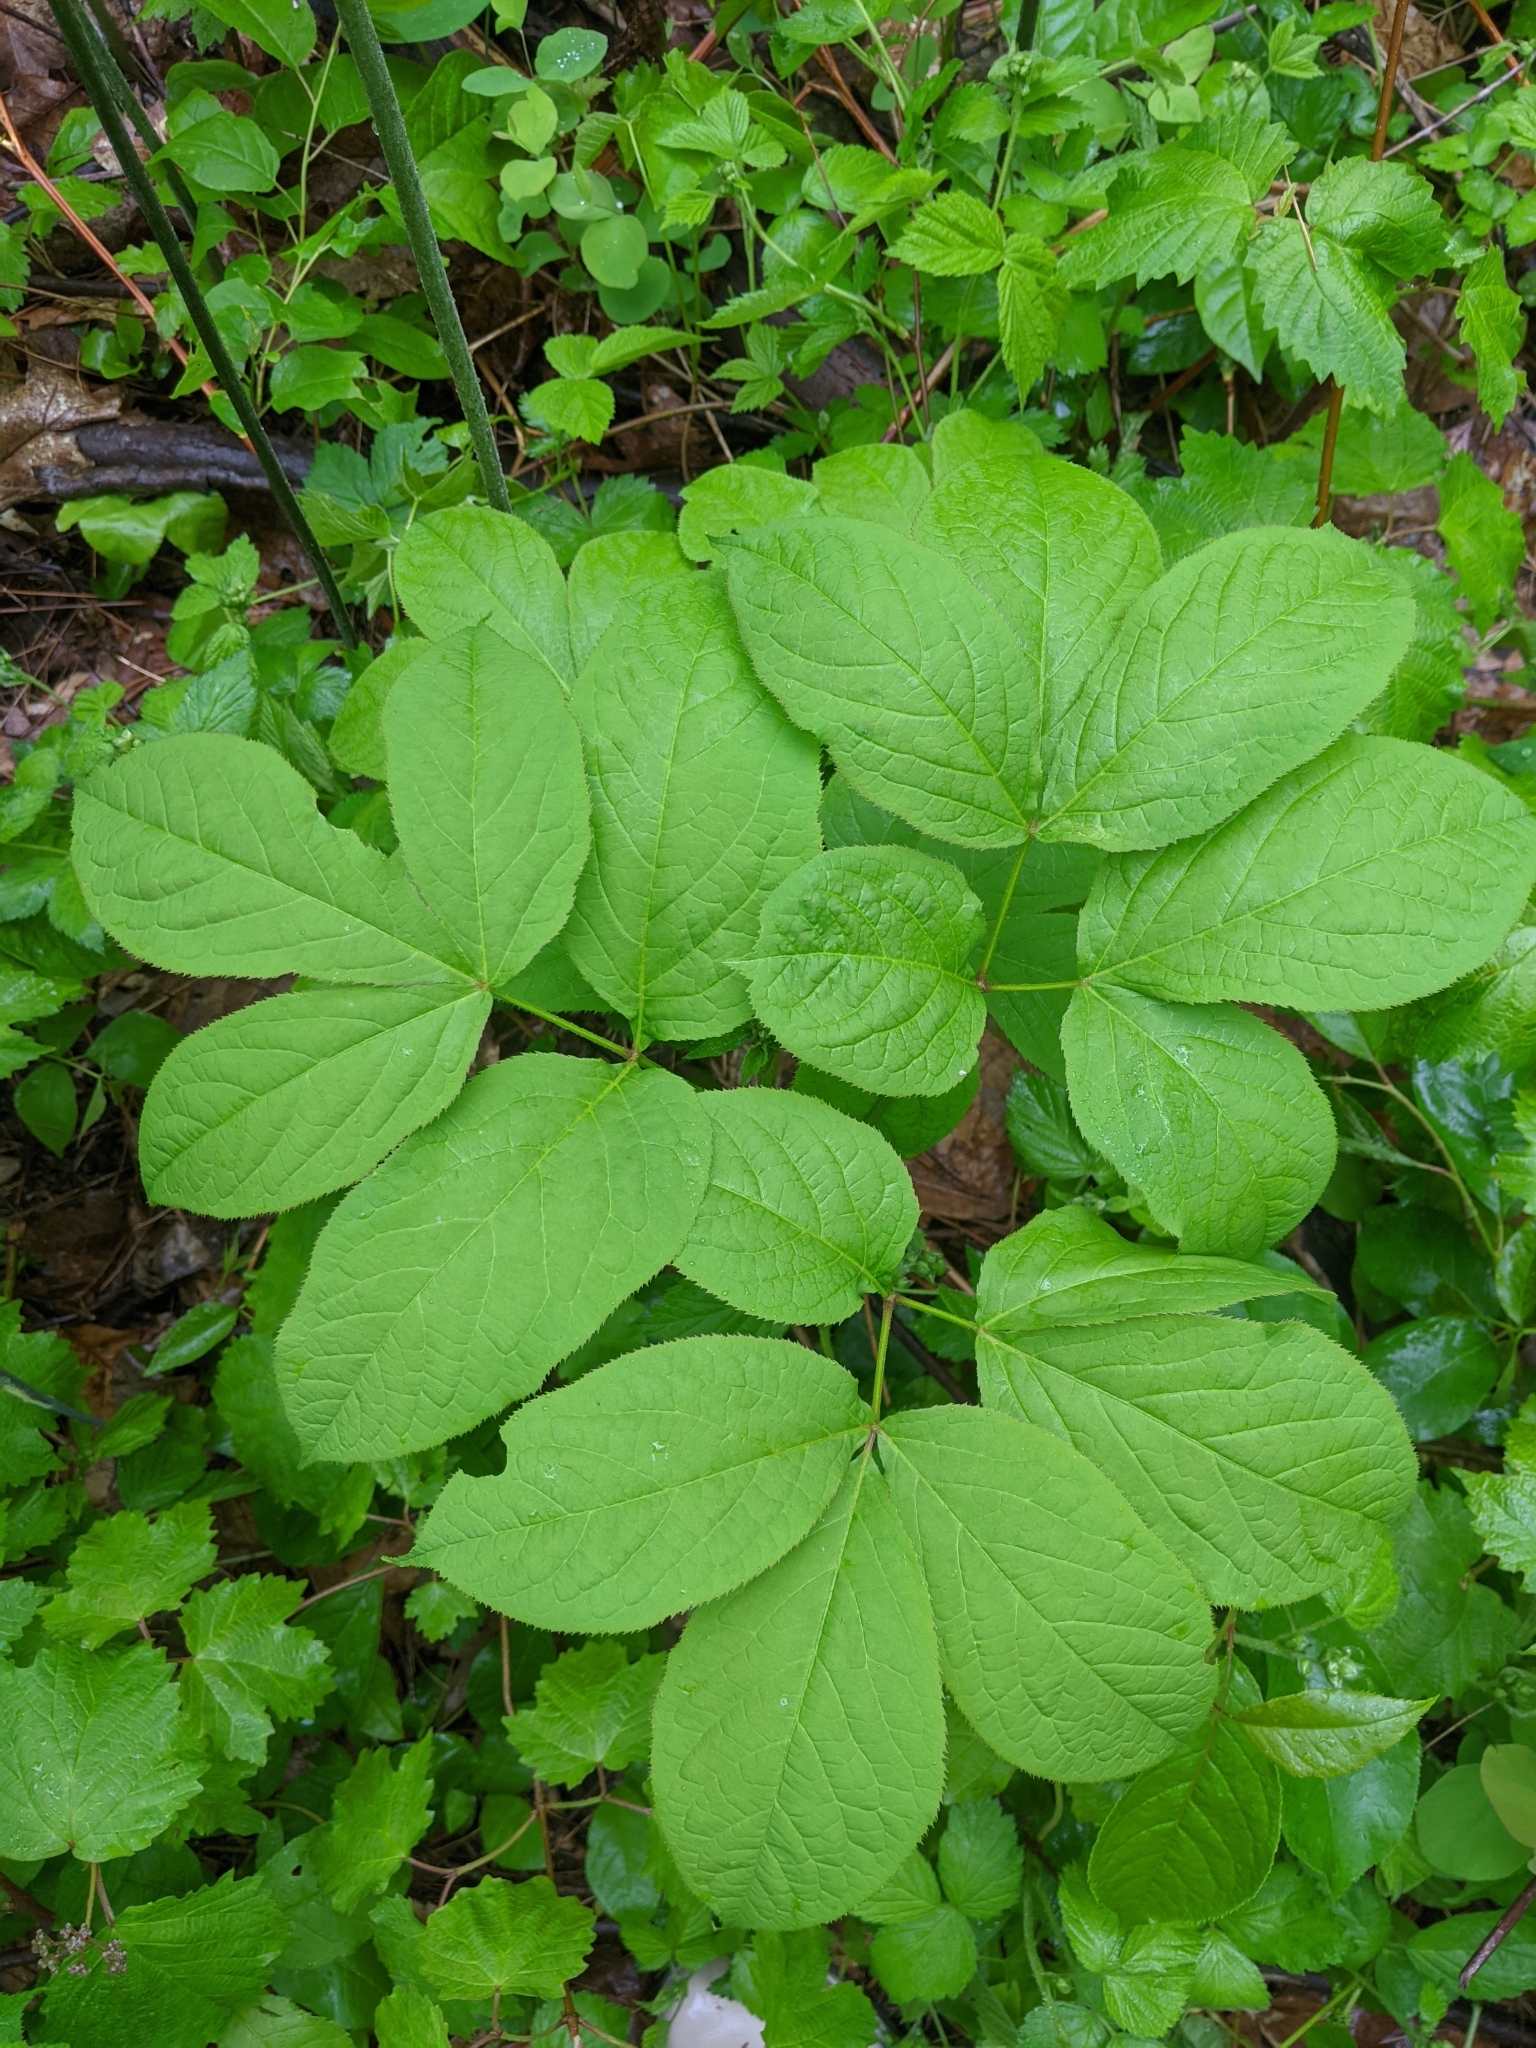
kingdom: Plantae
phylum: Tracheophyta
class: Magnoliopsida
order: Apiales
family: Araliaceae
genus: Aralia
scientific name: Aralia nudicaulis
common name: Wild sarsaparilla
